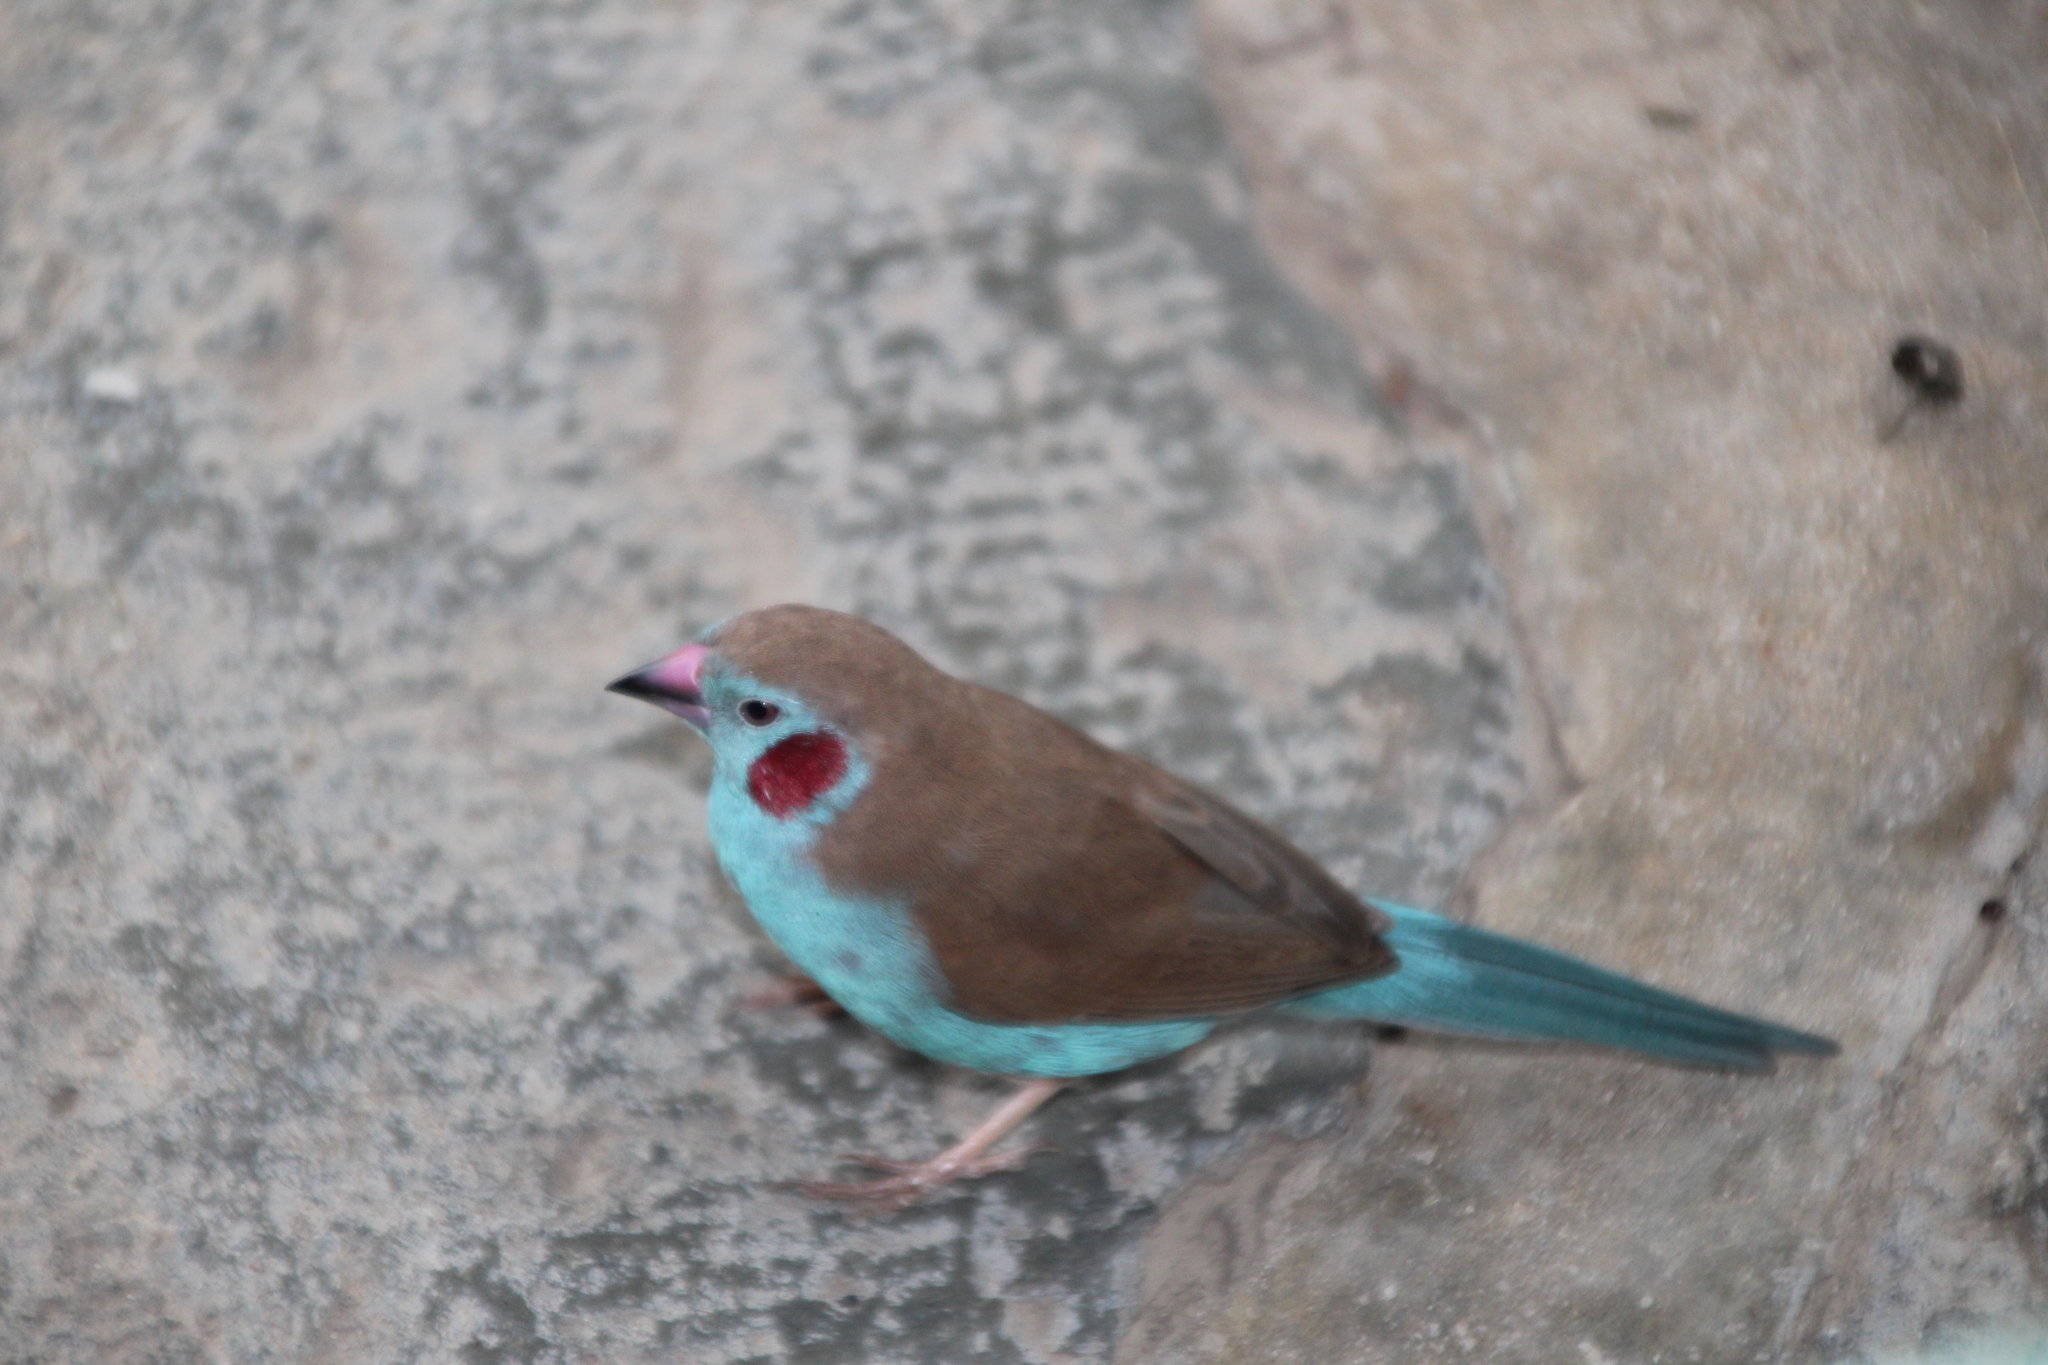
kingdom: Animalia
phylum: Chordata
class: Aves
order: Passeriformes
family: Estrildidae
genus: Uraeginthus
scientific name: Uraeginthus bengalus
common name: Red-cheeked cordon-bleu
